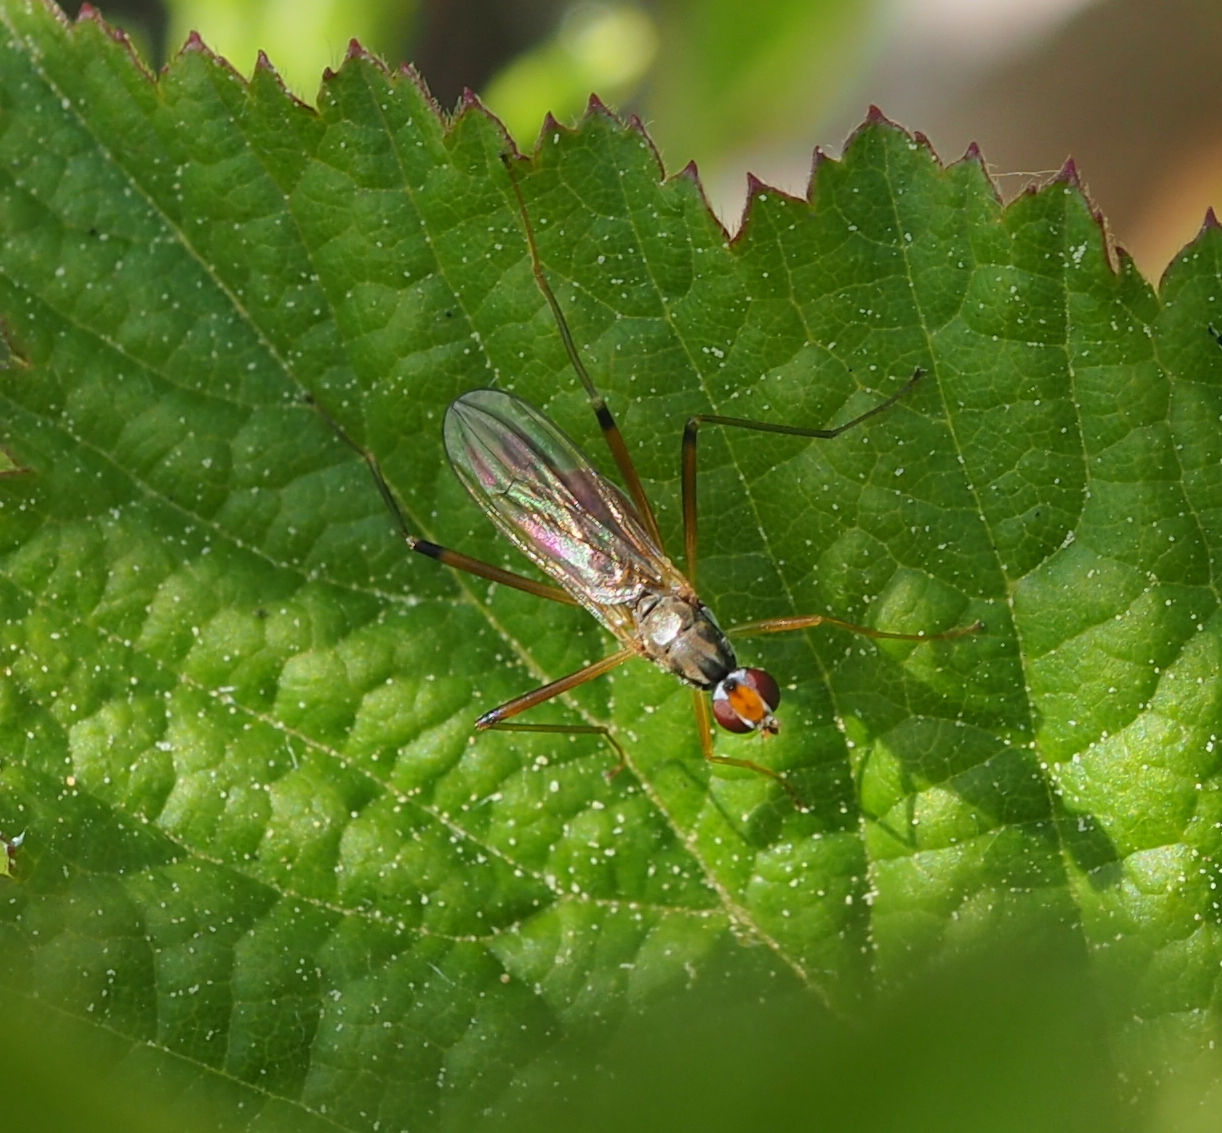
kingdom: Animalia
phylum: Arthropoda
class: Insecta
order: Diptera
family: Micropezidae
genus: Compsobata
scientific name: Compsobata cibaria
